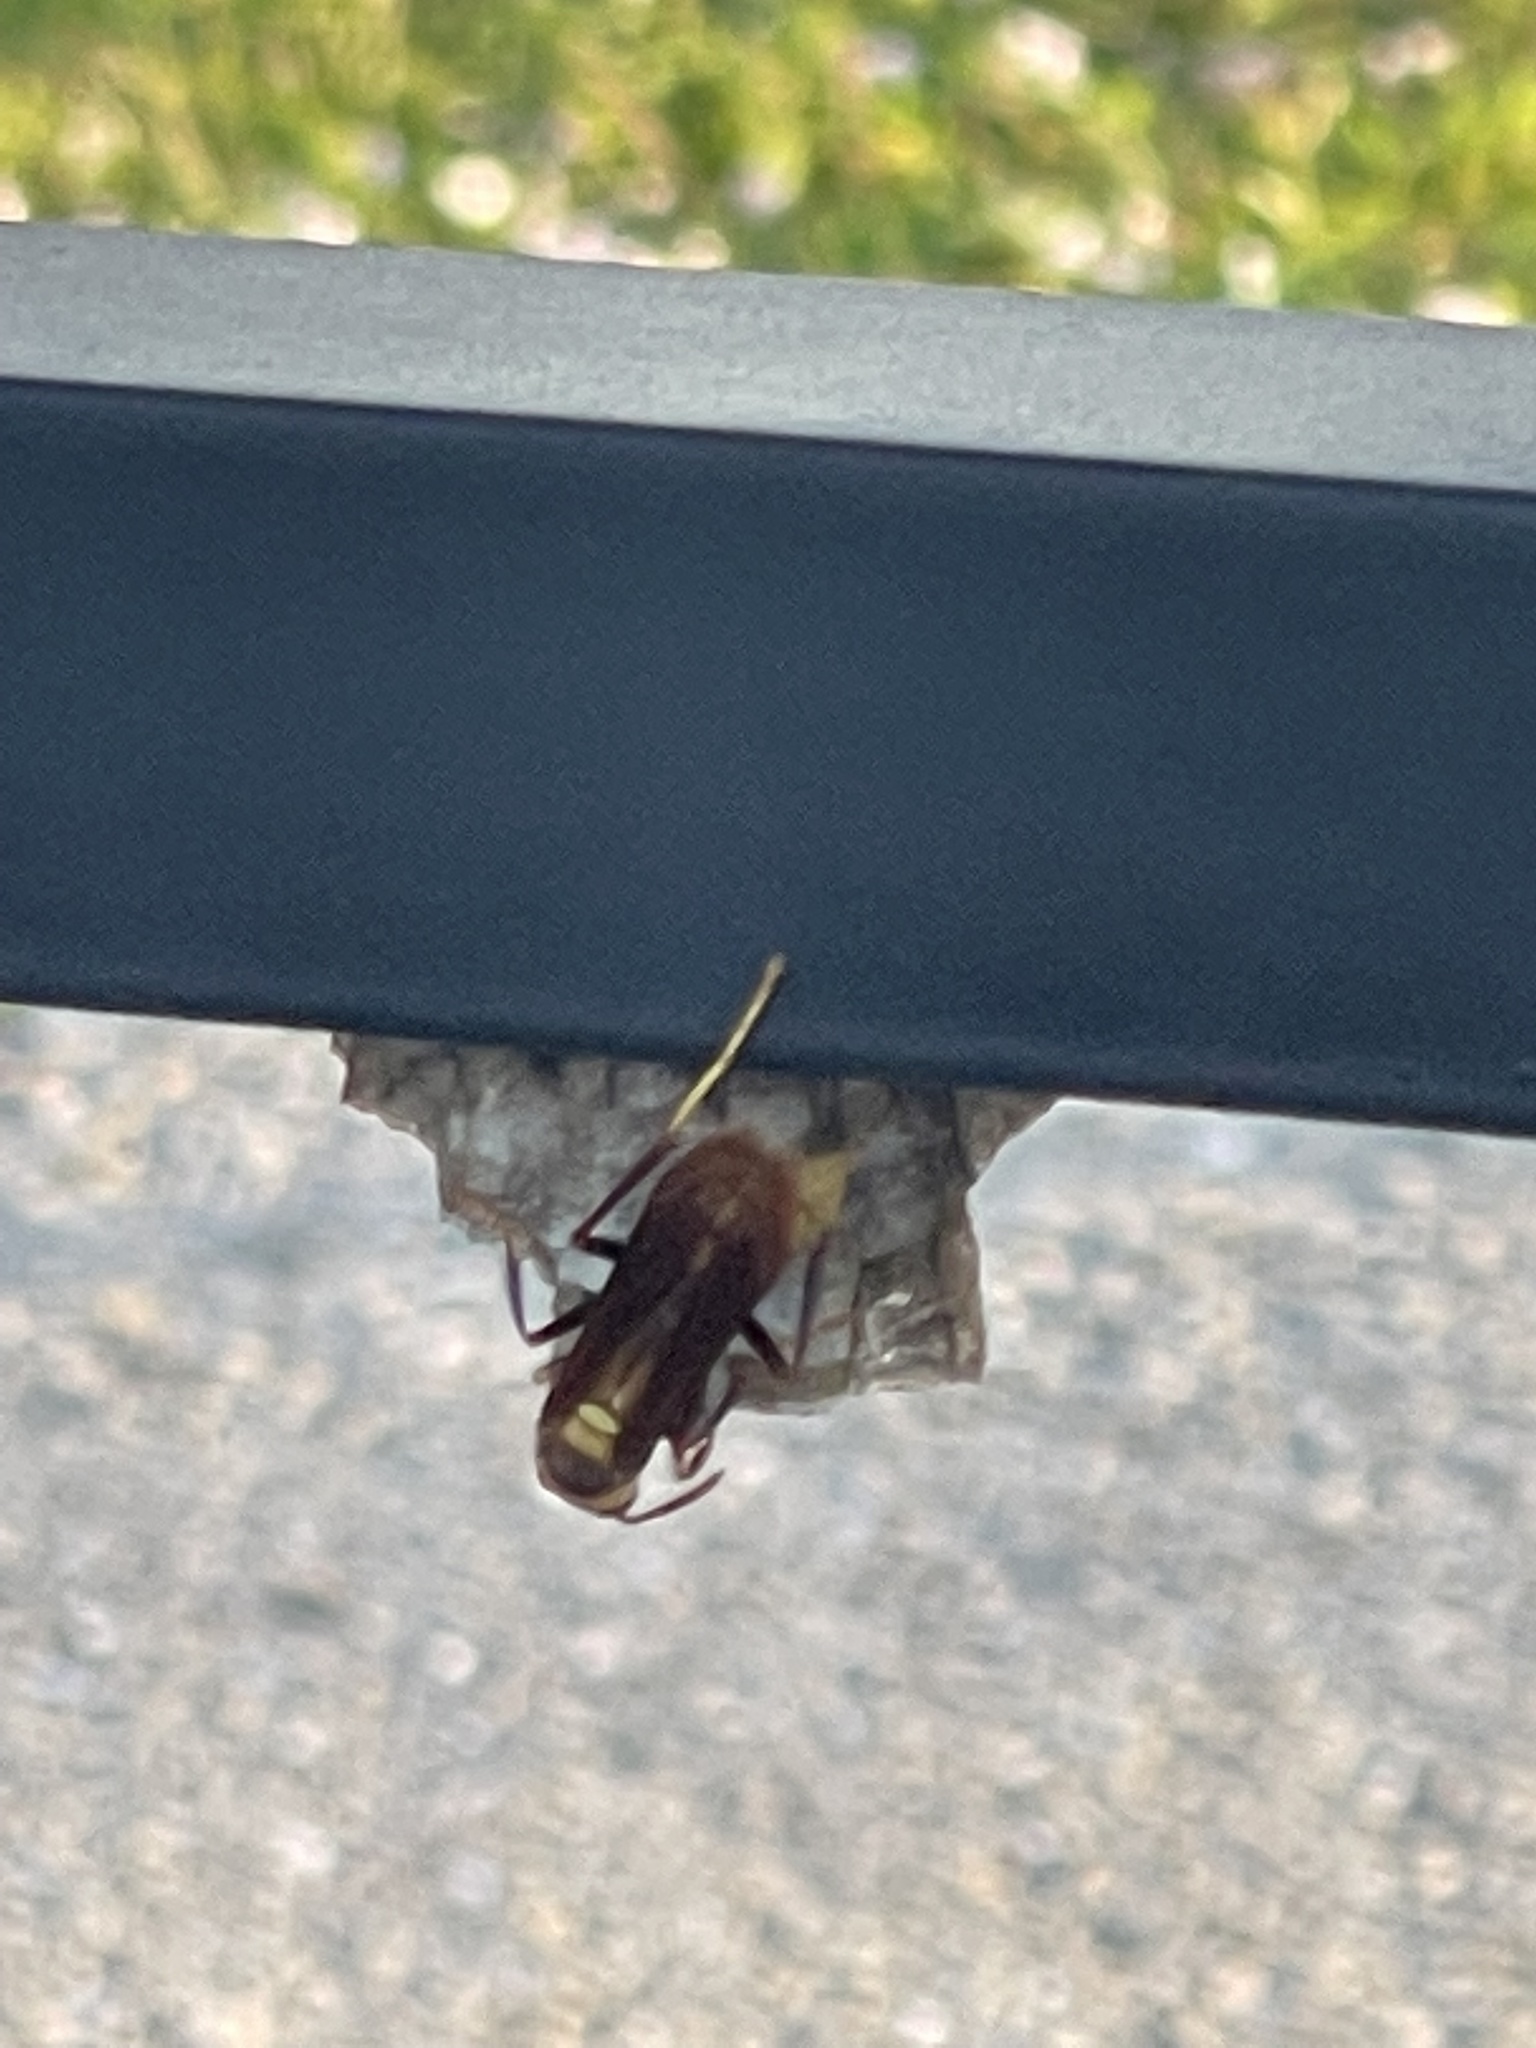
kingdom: Animalia
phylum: Arthropoda
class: Insecta
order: Hymenoptera
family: Eumenidae
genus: Polistes
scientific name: Polistes major
